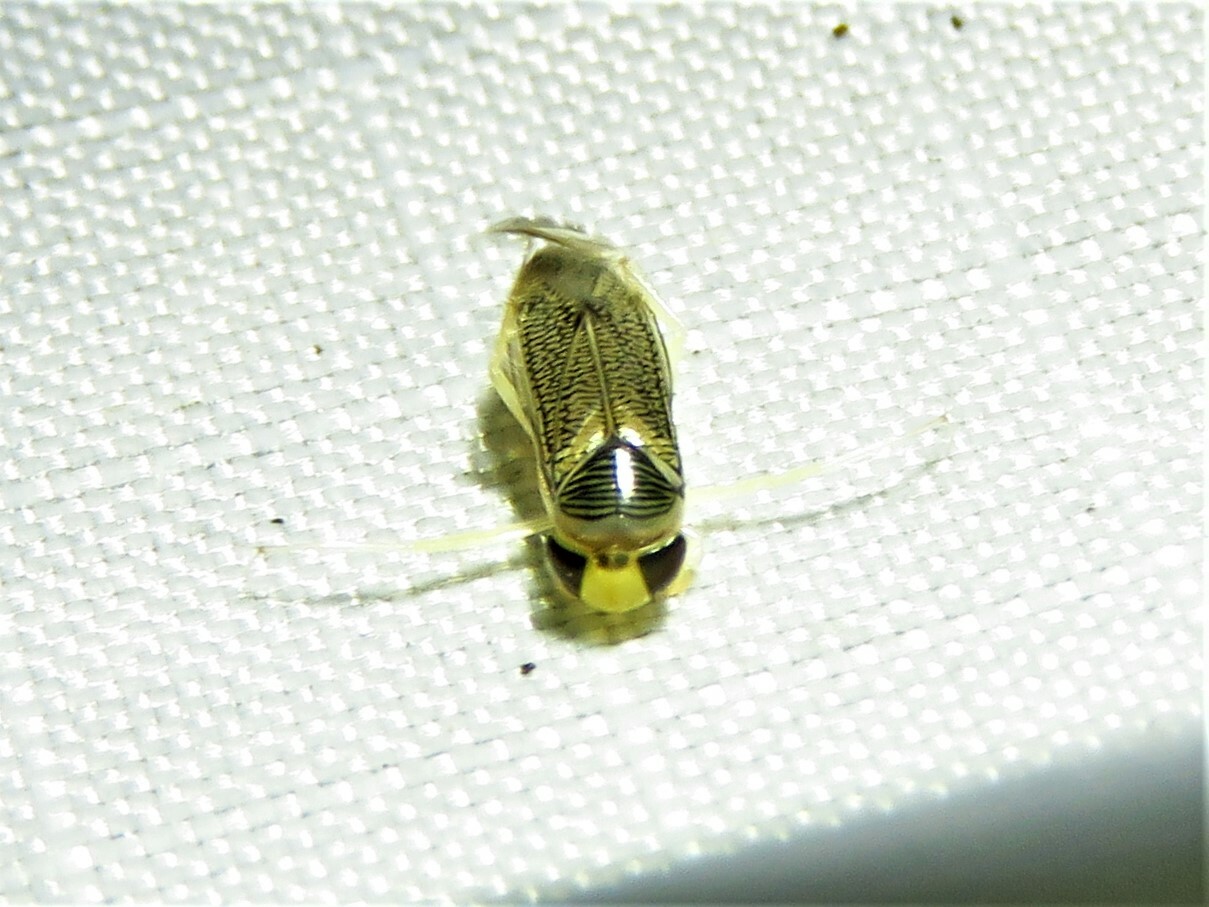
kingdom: Animalia
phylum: Arthropoda
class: Insecta
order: Hemiptera
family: Corixidae
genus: Trichocorixa
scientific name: Trichocorixa
